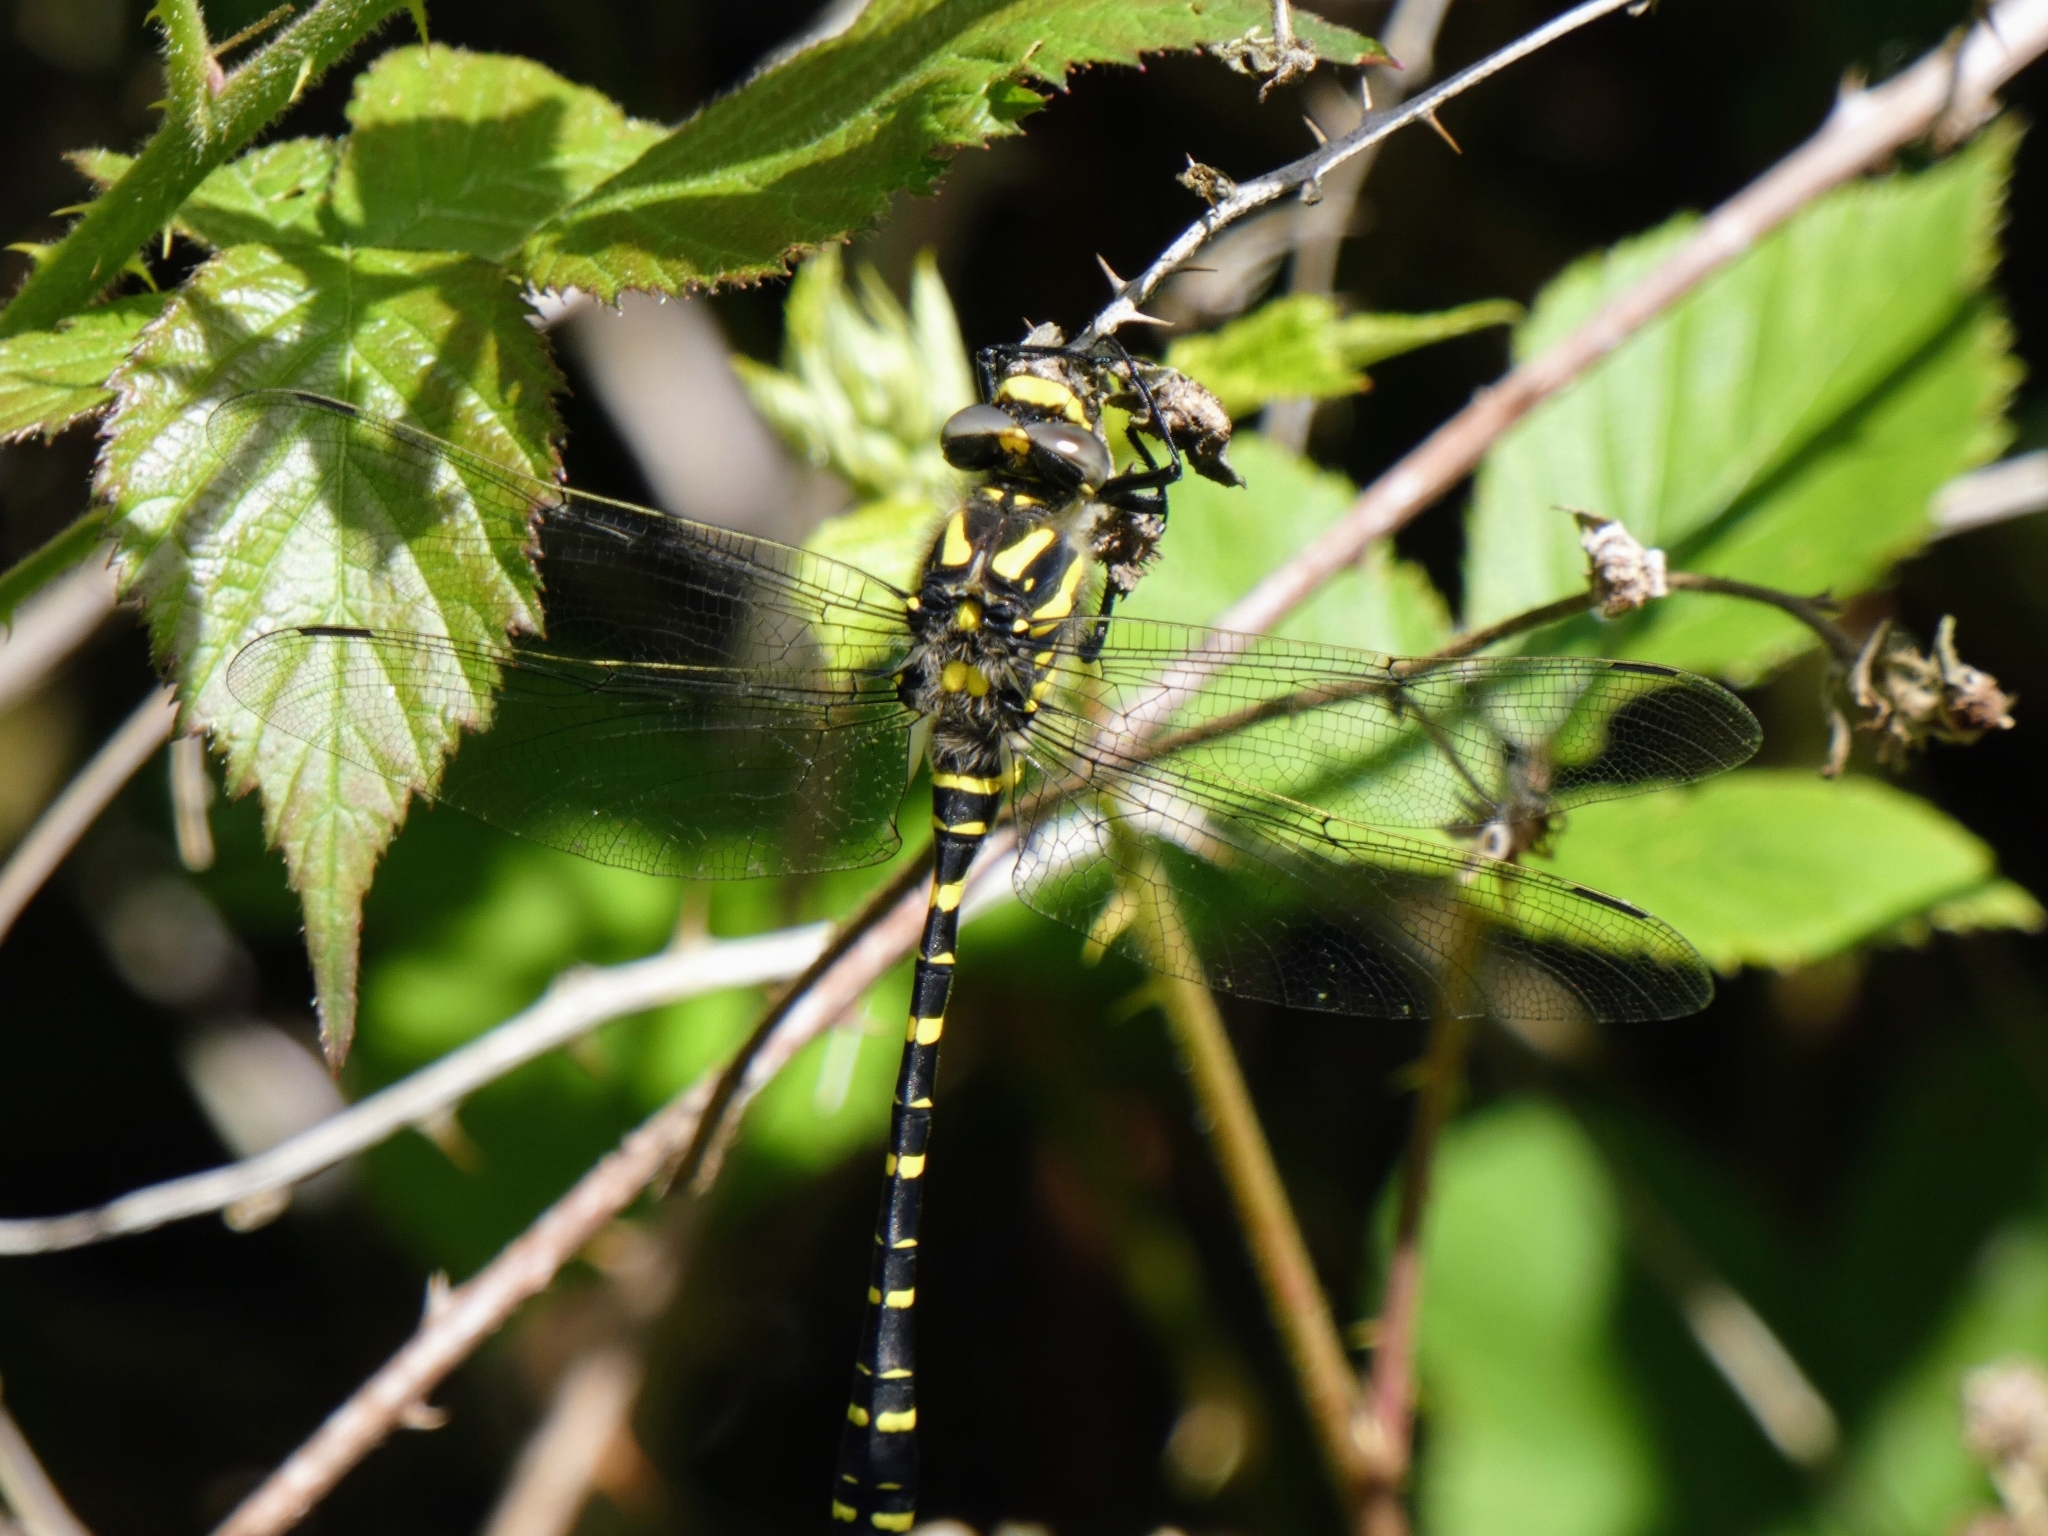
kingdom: Animalia
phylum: Arthropoda
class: Insecta
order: Odonata
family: Cordulegastridae
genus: Cordulegaster
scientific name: Cordulegaster boltonii
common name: Golden-ringed dragonfly
